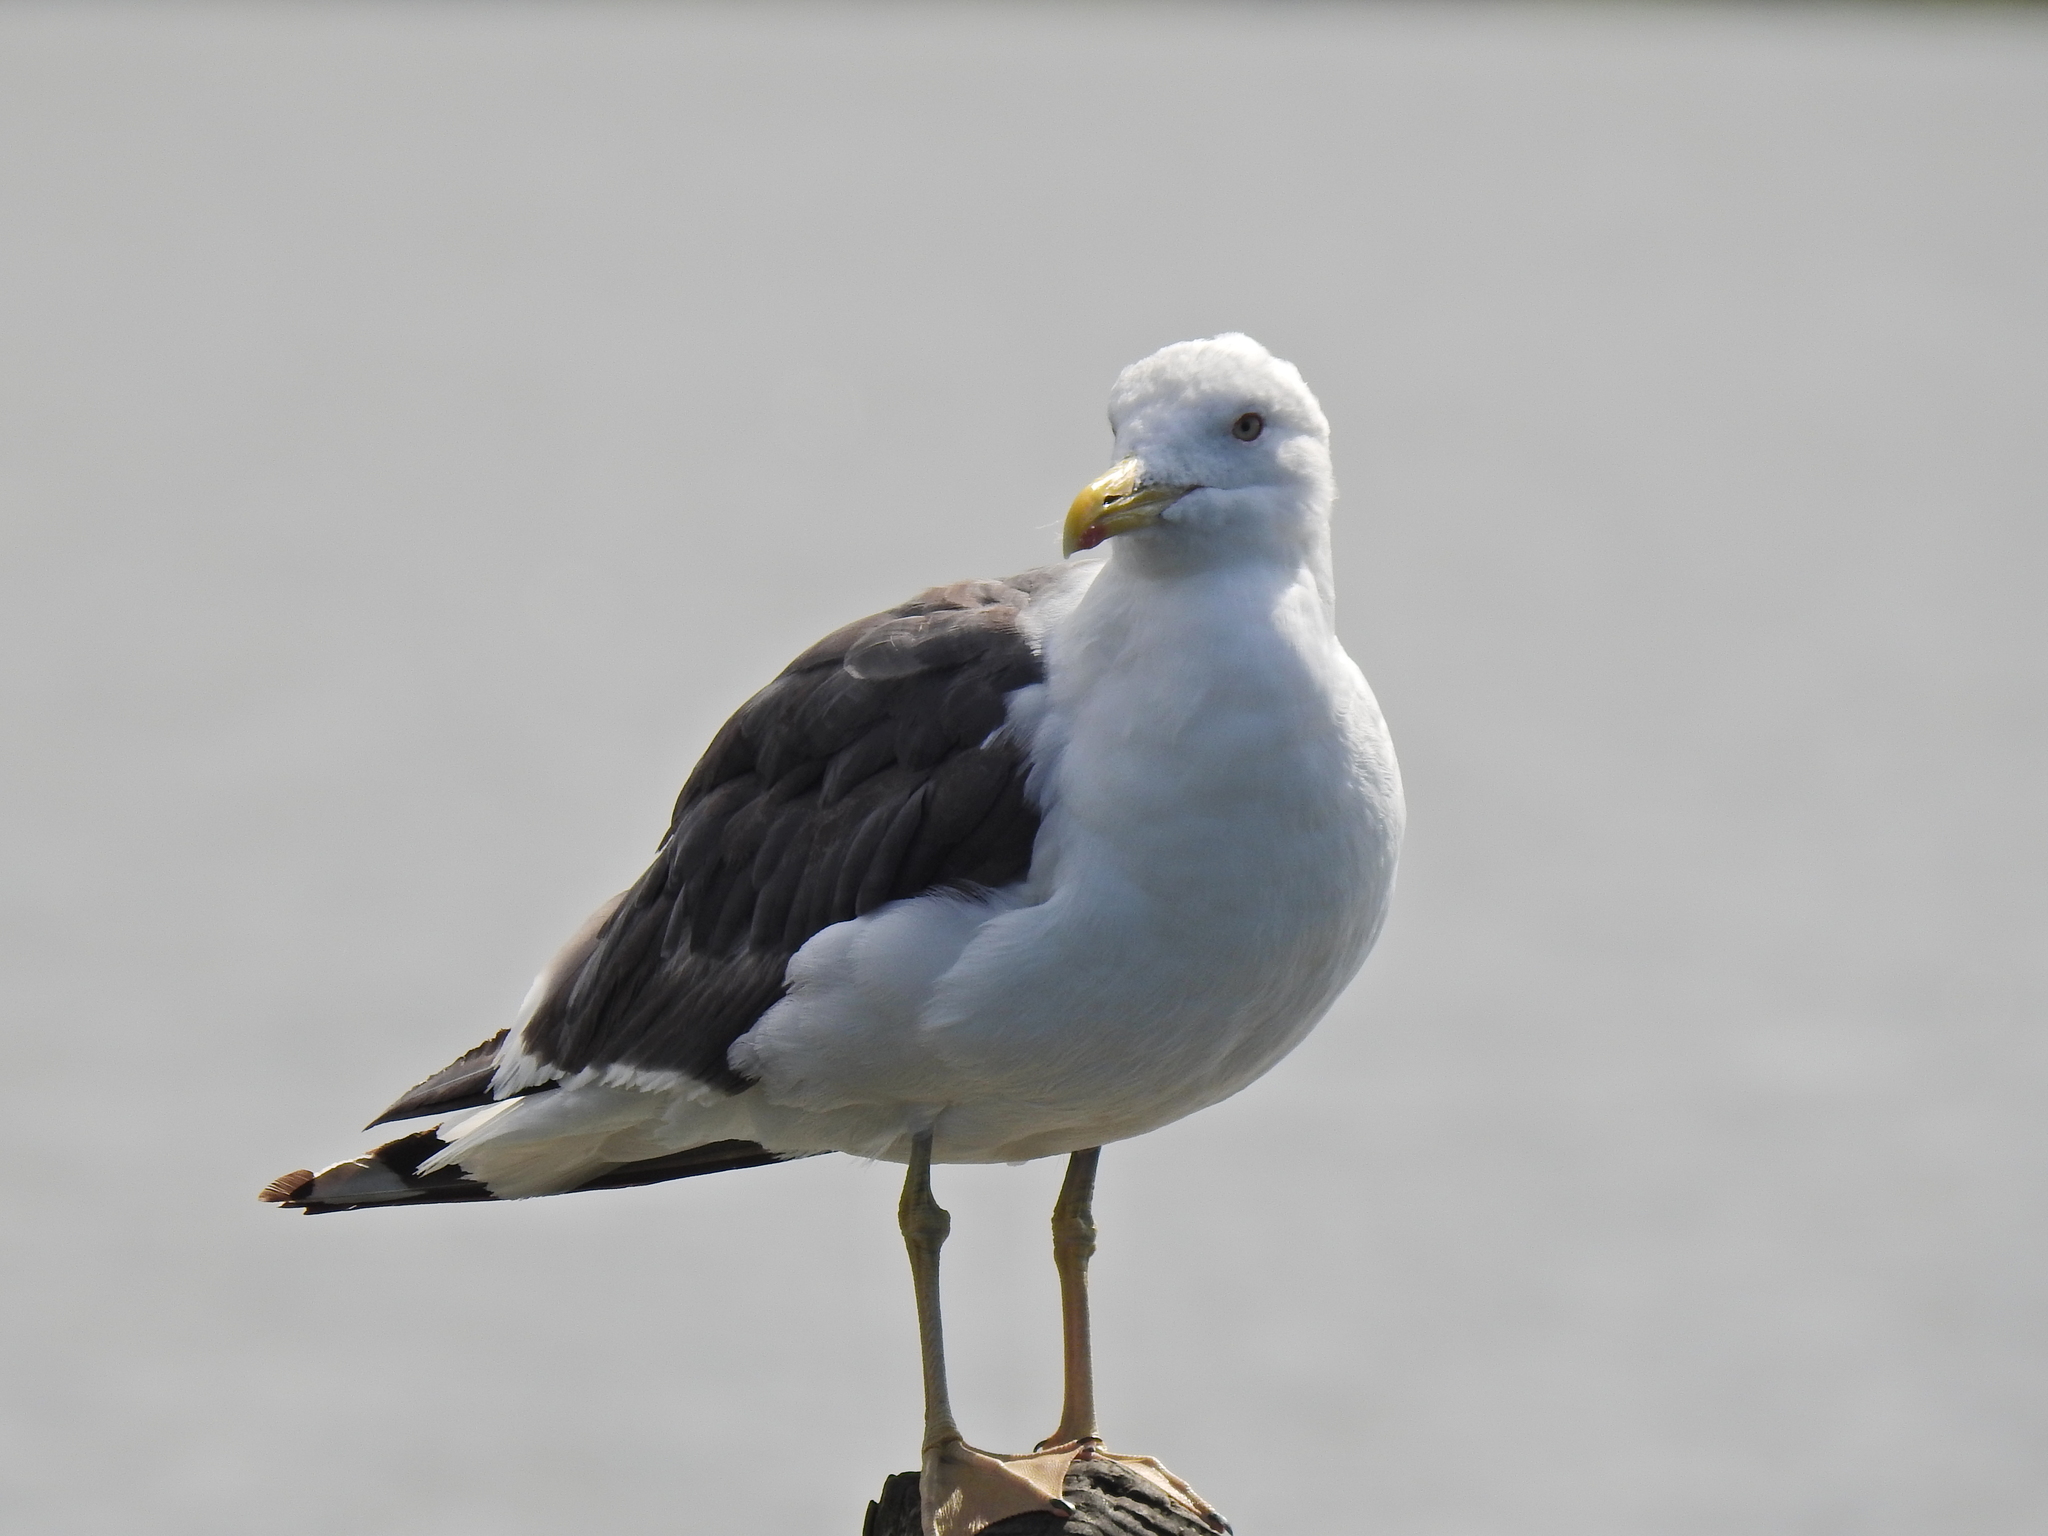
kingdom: Animalia
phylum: Chordata
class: Aves
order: Charadriiformes
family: Laridae
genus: Larus
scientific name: Larus fuscus
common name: Lesser black-backed gull
